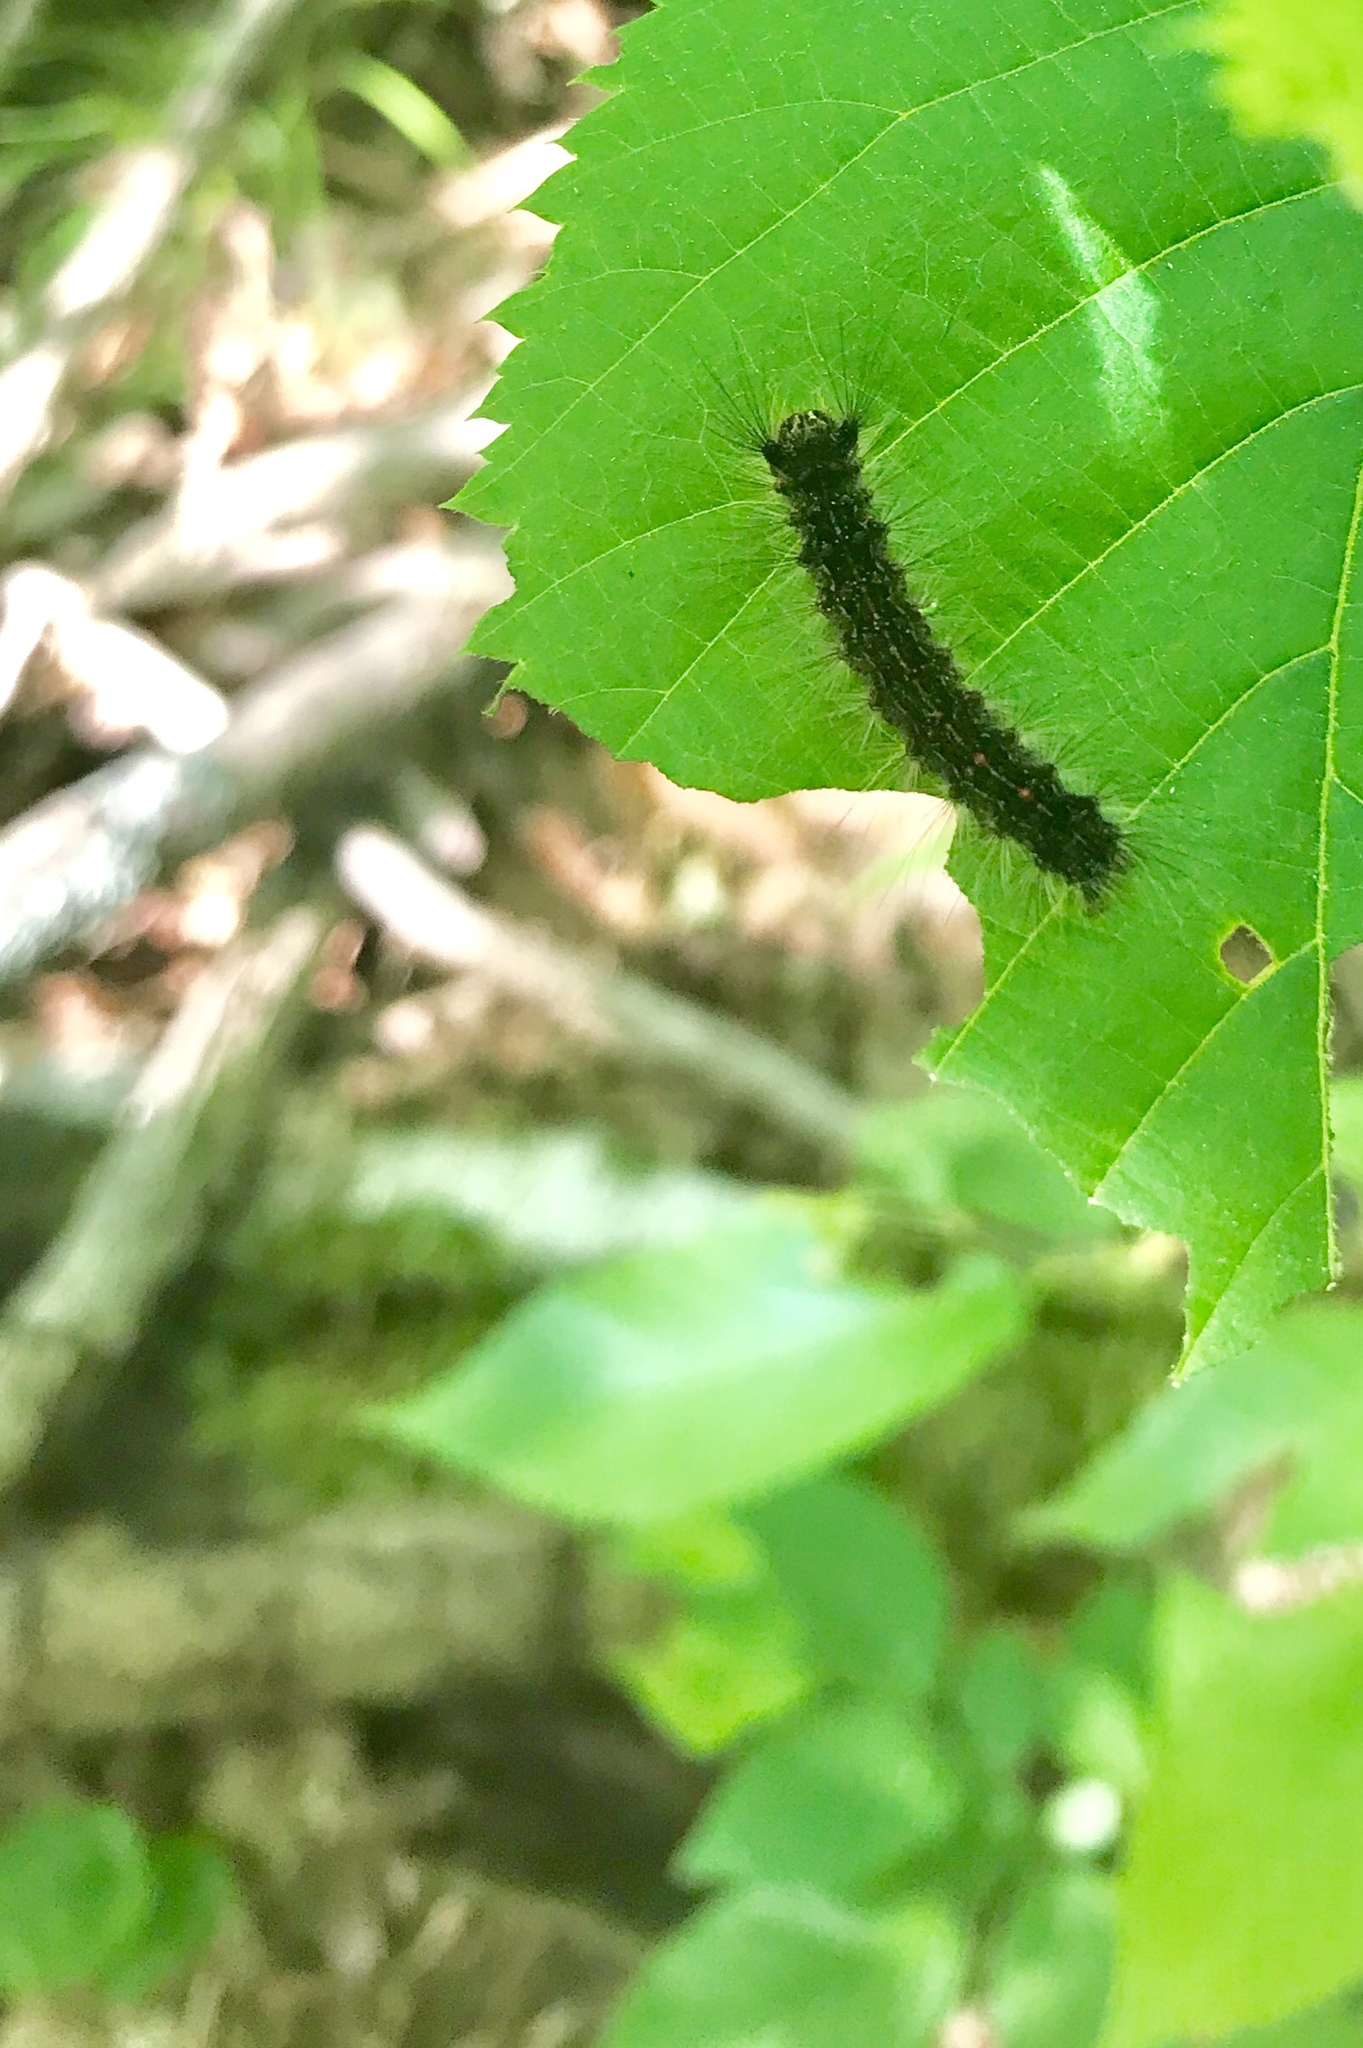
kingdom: Animalia
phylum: Arthropoda
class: Insecta
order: Lepidoptera
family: Erebidae
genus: Lymantria
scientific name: Lymantria dispar
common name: Gypsy moth
